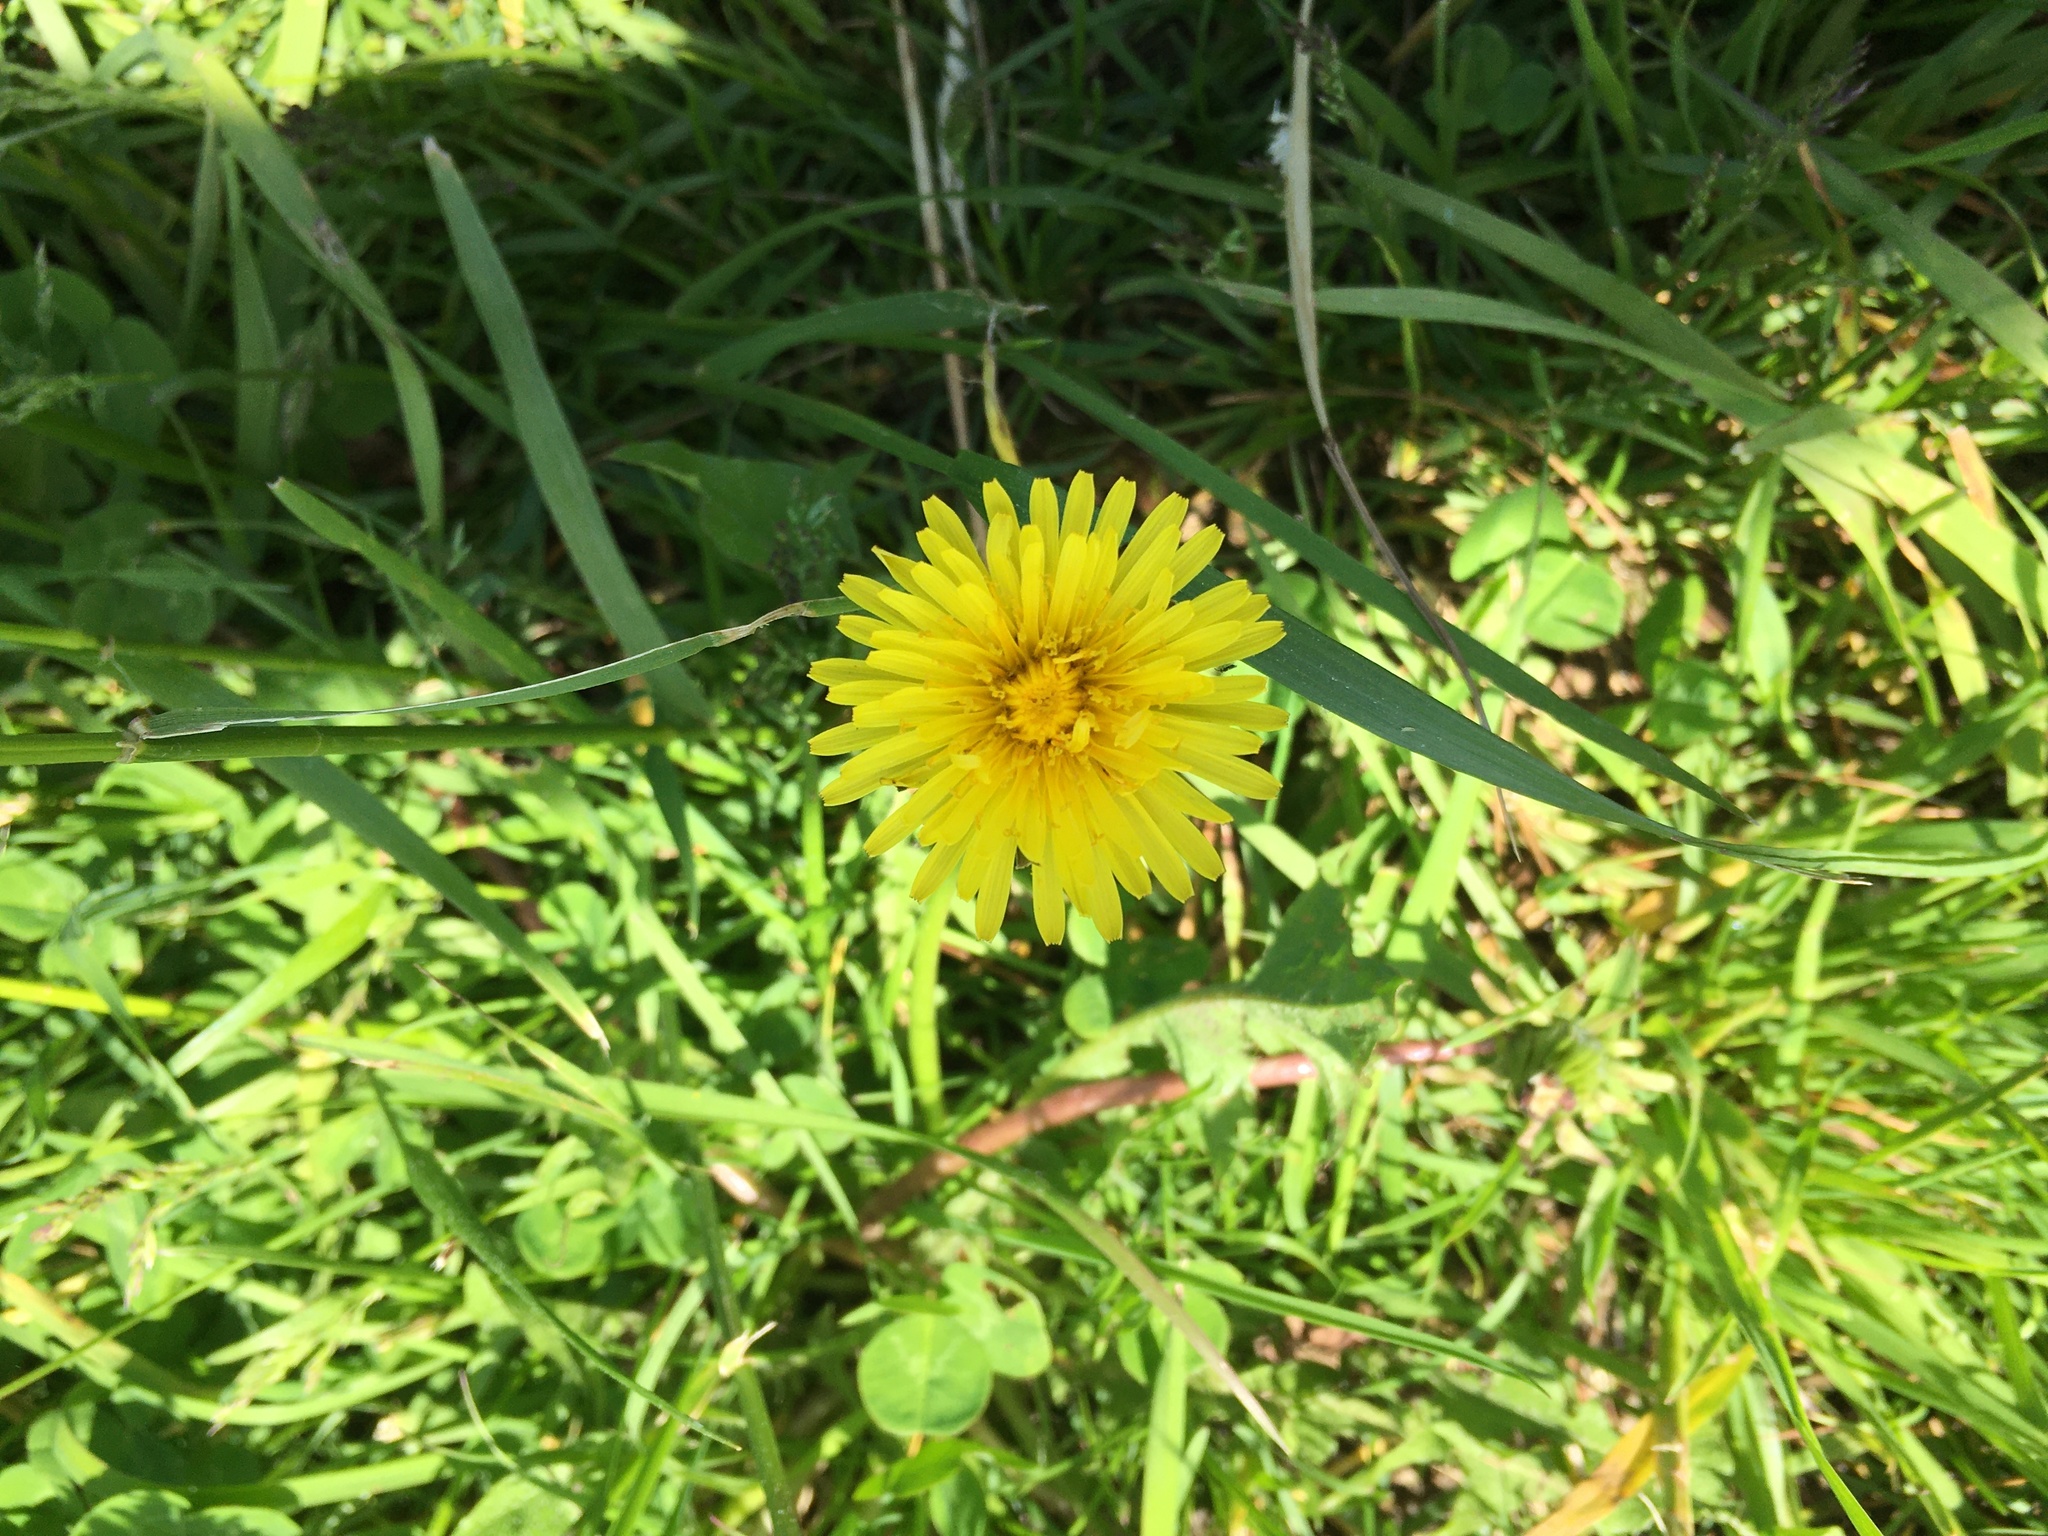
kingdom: Plantae
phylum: Tracheophyta
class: Magnoliopsida
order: Asterales
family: Asteraceae
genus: Taraxacum
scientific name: Taraxacum officinale
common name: Common dandelion
